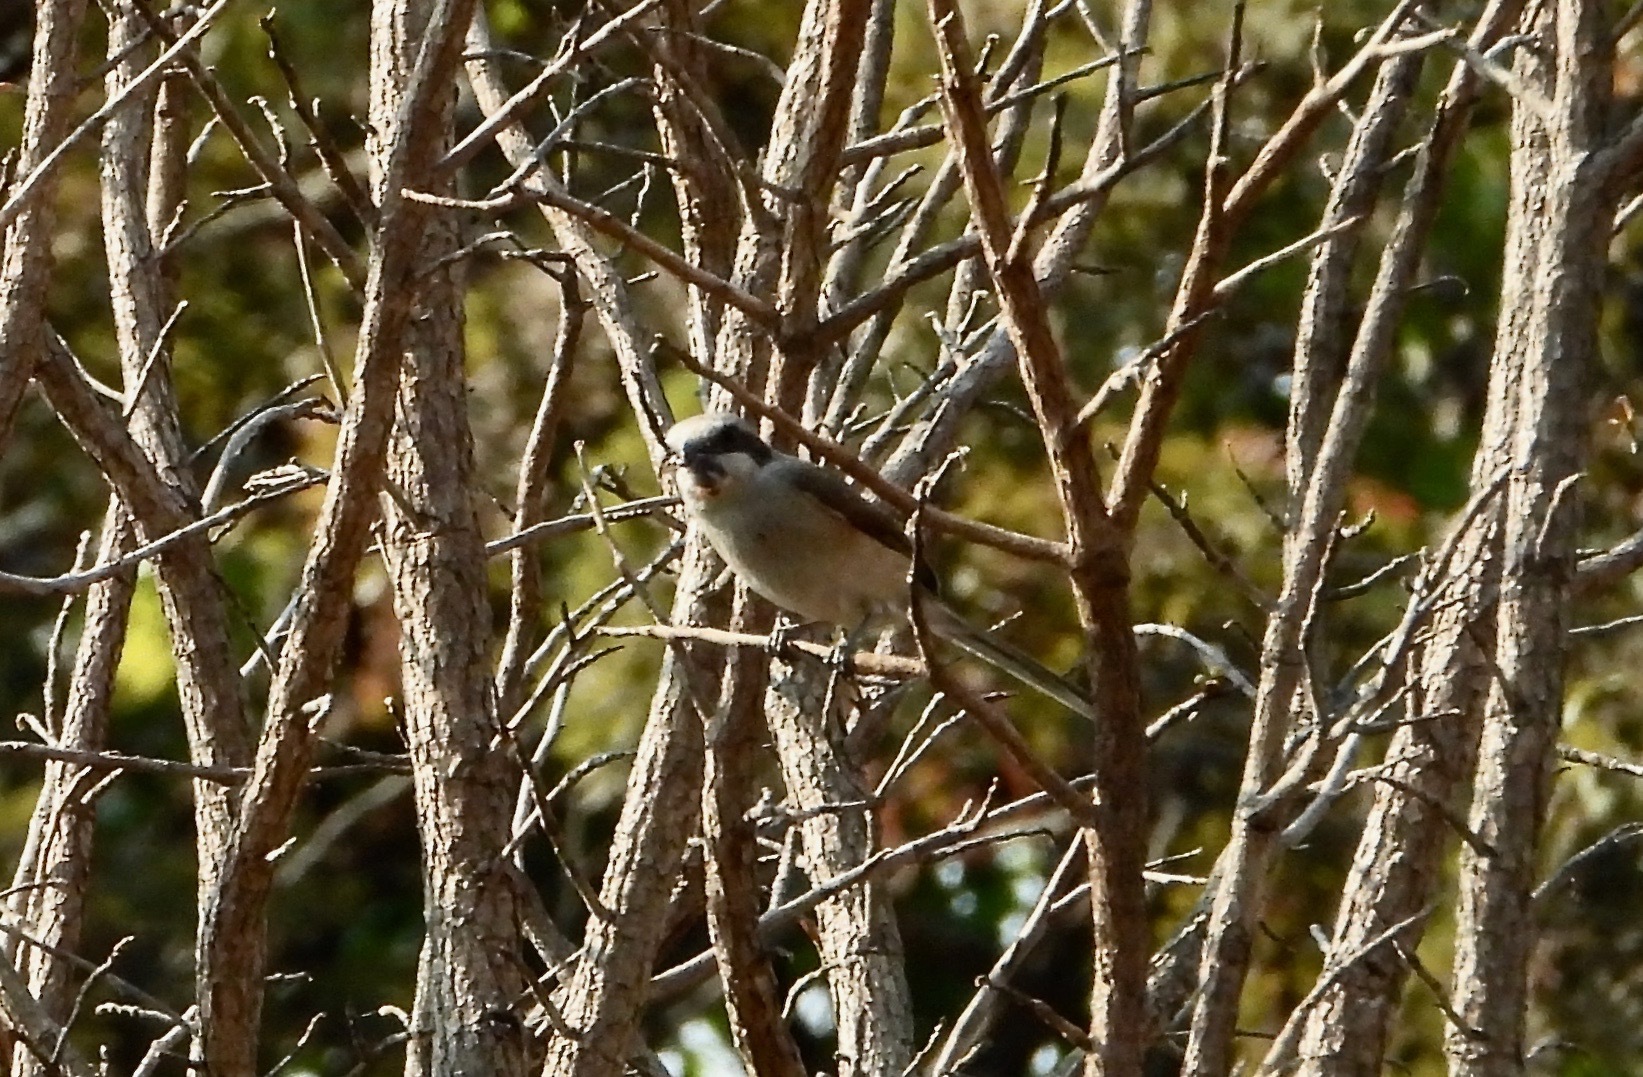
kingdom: Animalia
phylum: Chordata
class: Aves
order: Passeriformes
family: Laniidae
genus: Lanius
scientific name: Lanius souzae
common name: Souza's shrike
